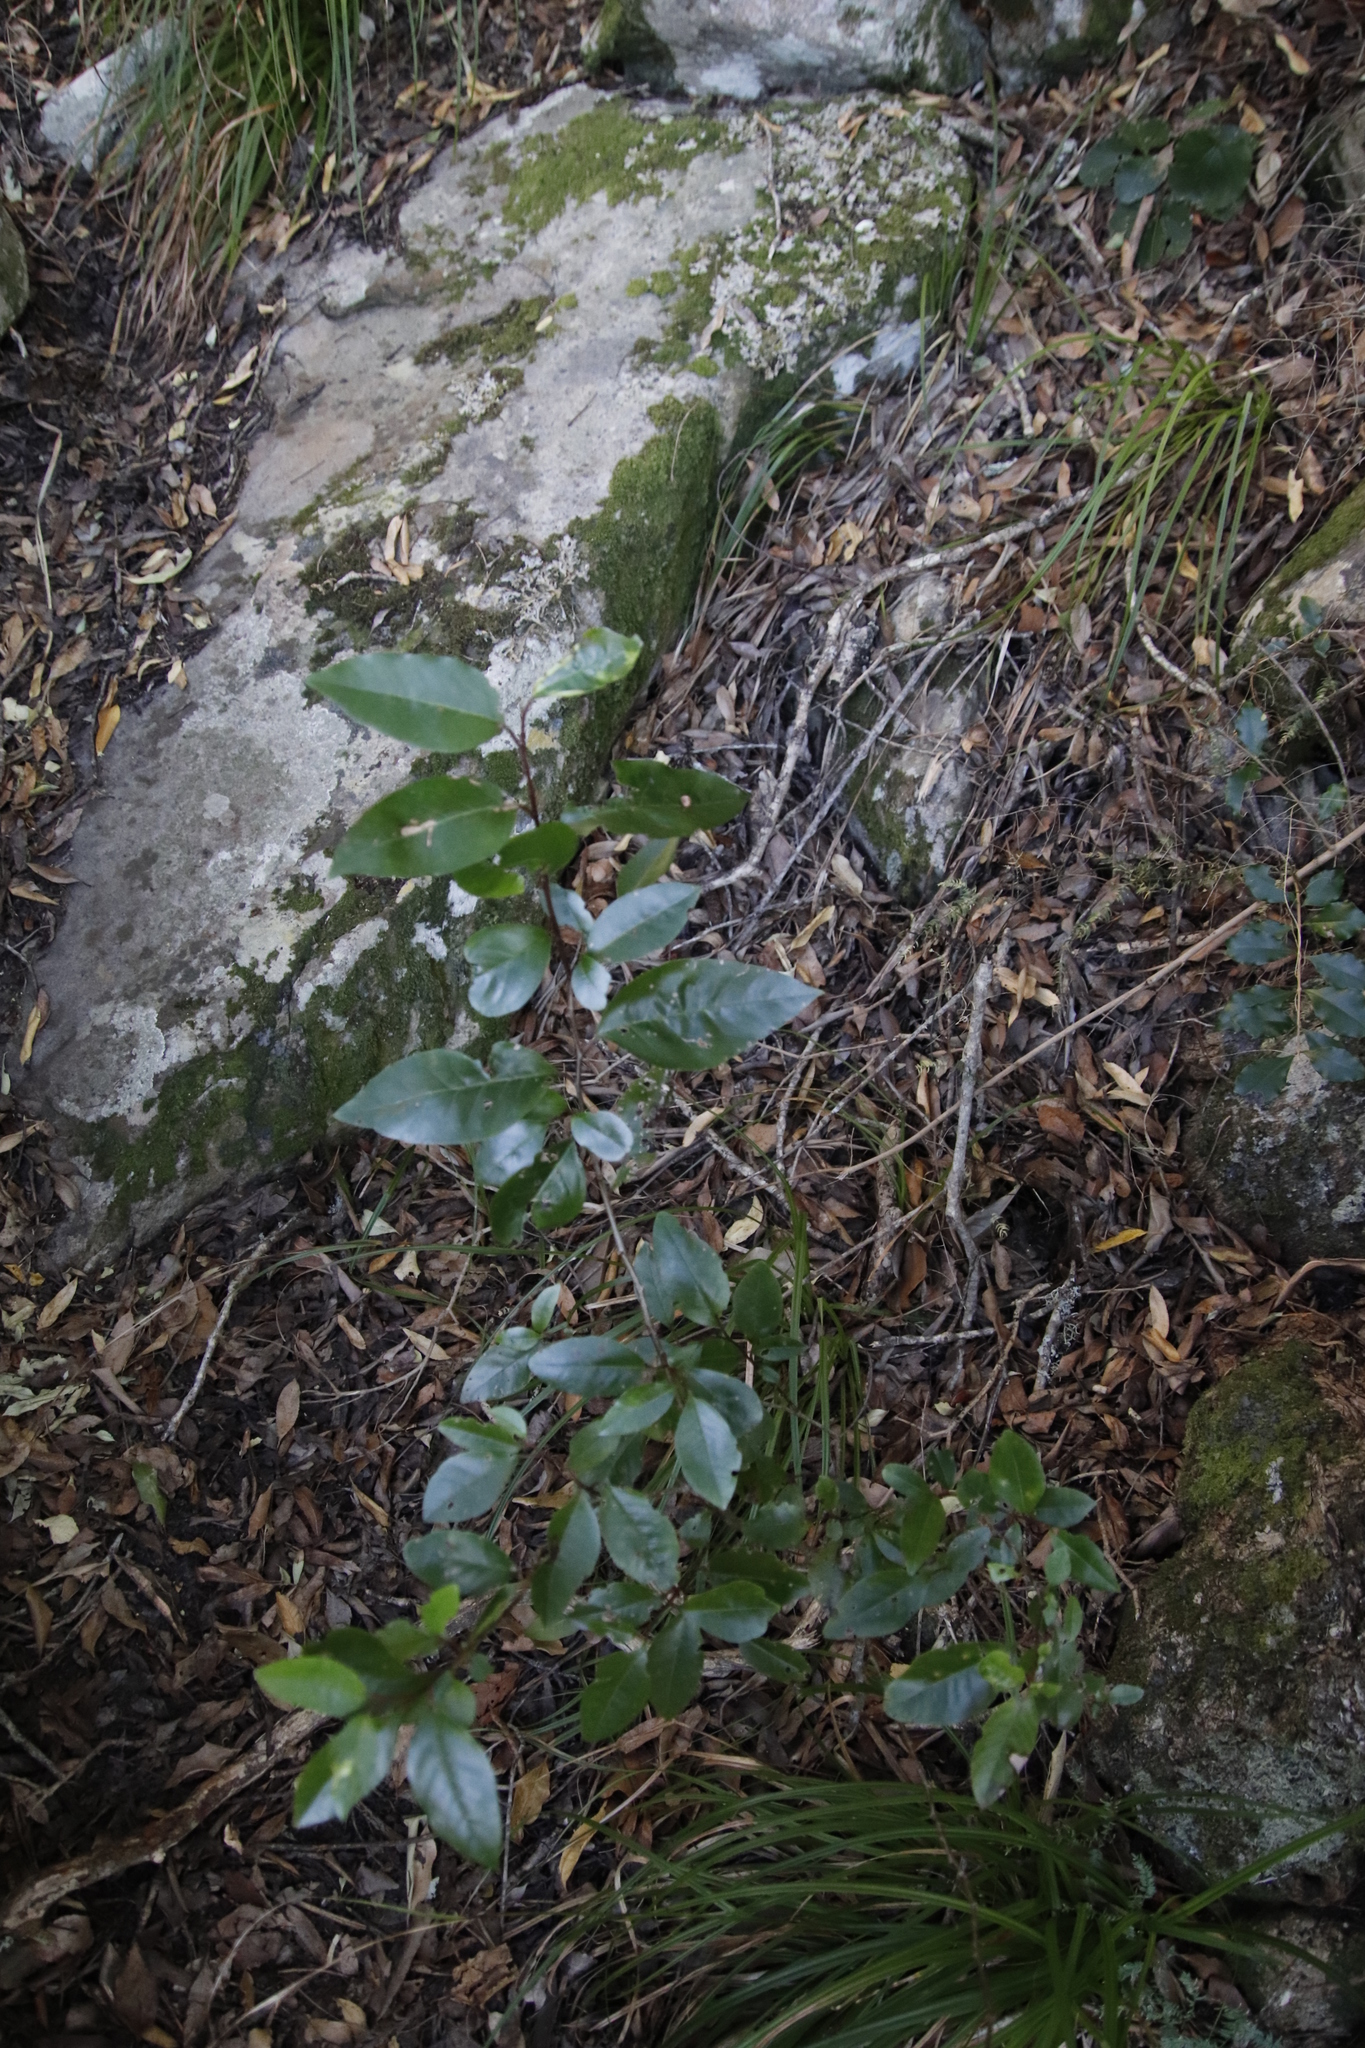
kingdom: Plantae
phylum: Tracheophyta
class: Magnoliopsida
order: Aquifoliales
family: Aquifoliaceae
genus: Ilex
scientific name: Ilex mitis
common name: African holly
